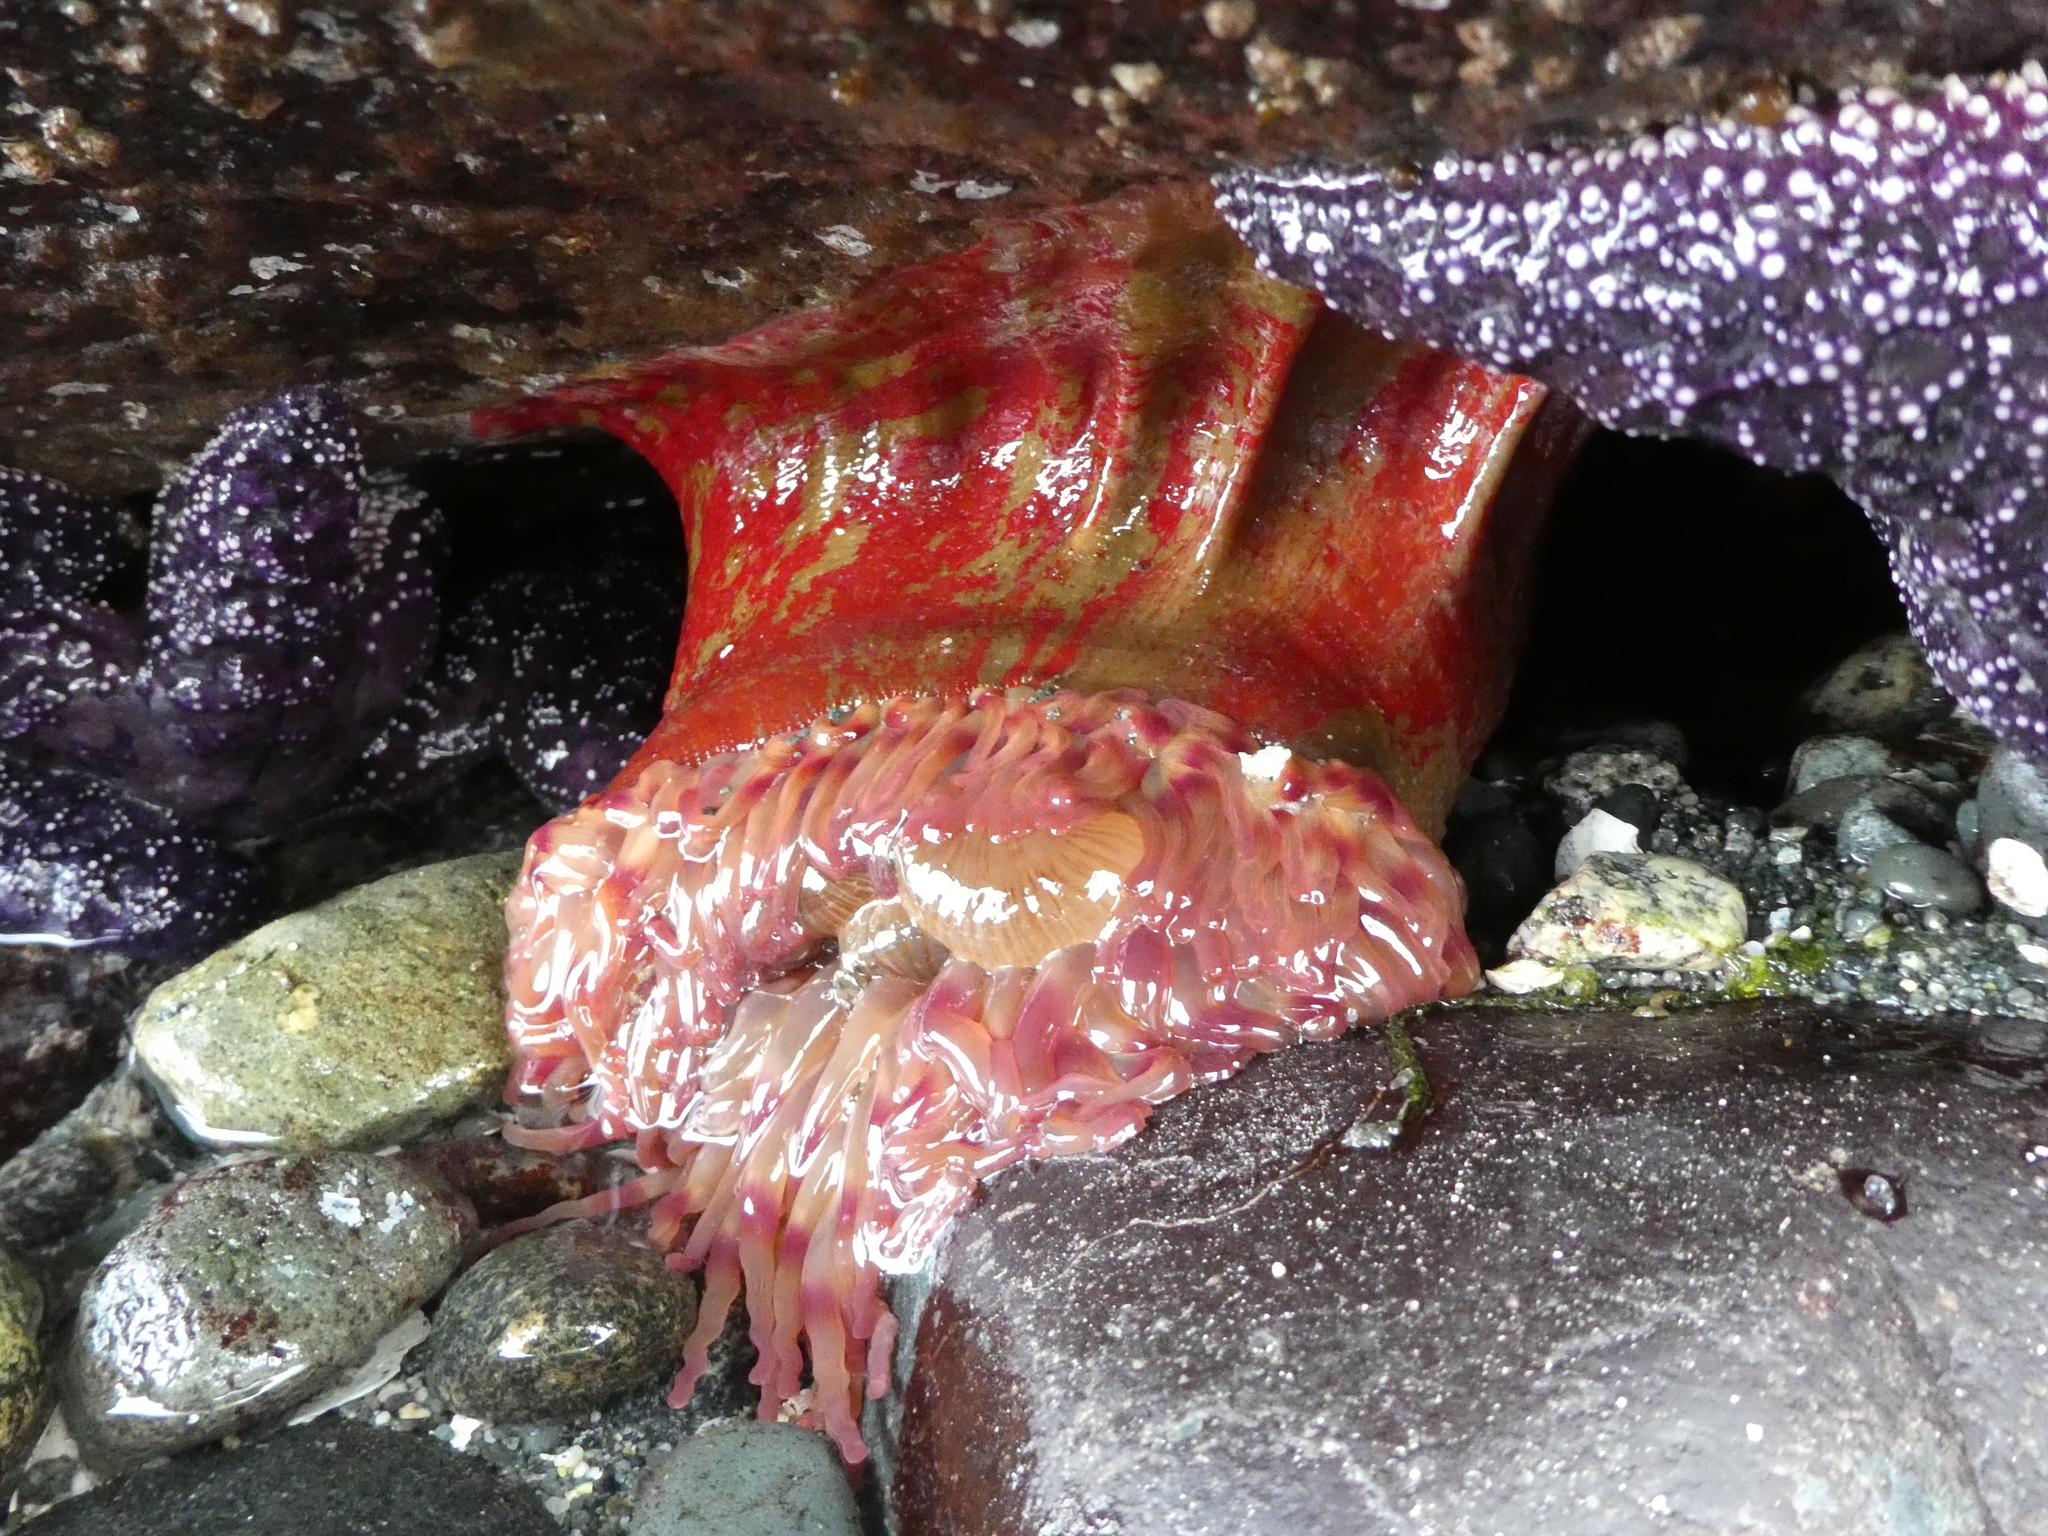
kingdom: Animalia
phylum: Cnidaria
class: Anthozoa
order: Actiniaria
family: Actiniidae
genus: Urticina
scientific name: Urticina grebelnyi
